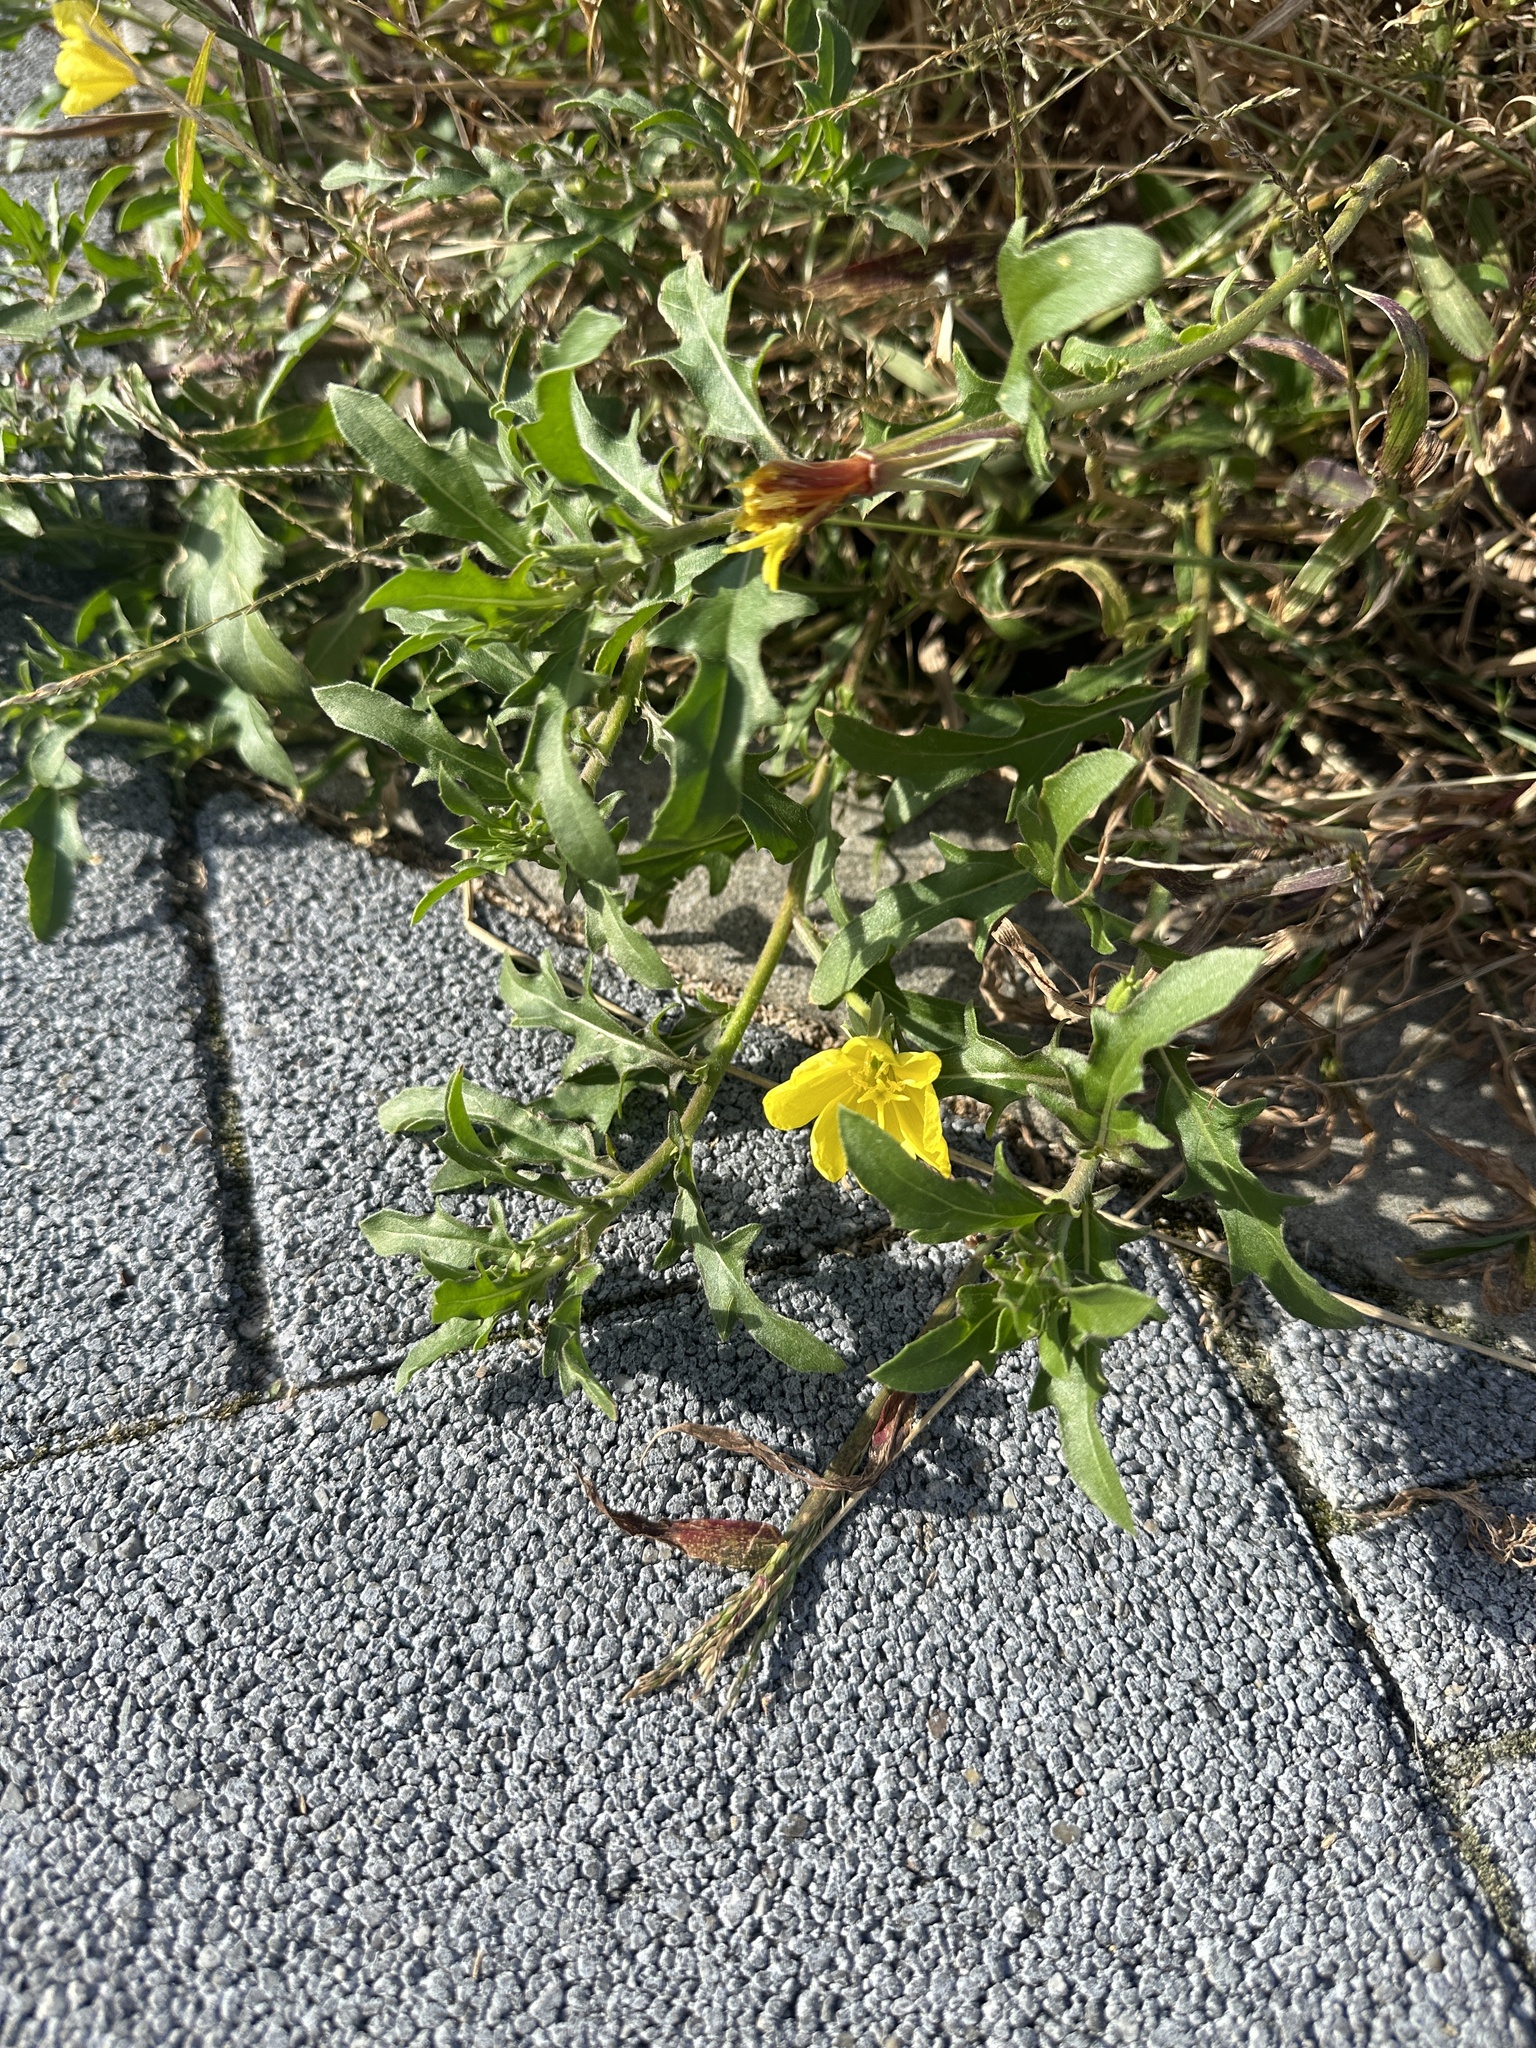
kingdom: Plantae
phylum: Tracheophyta
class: Magnoliopsida
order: Myrtales
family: Onagraceae
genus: Oenothera
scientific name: Oenothera laciniata
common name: Cut-leaved evening-primrose
